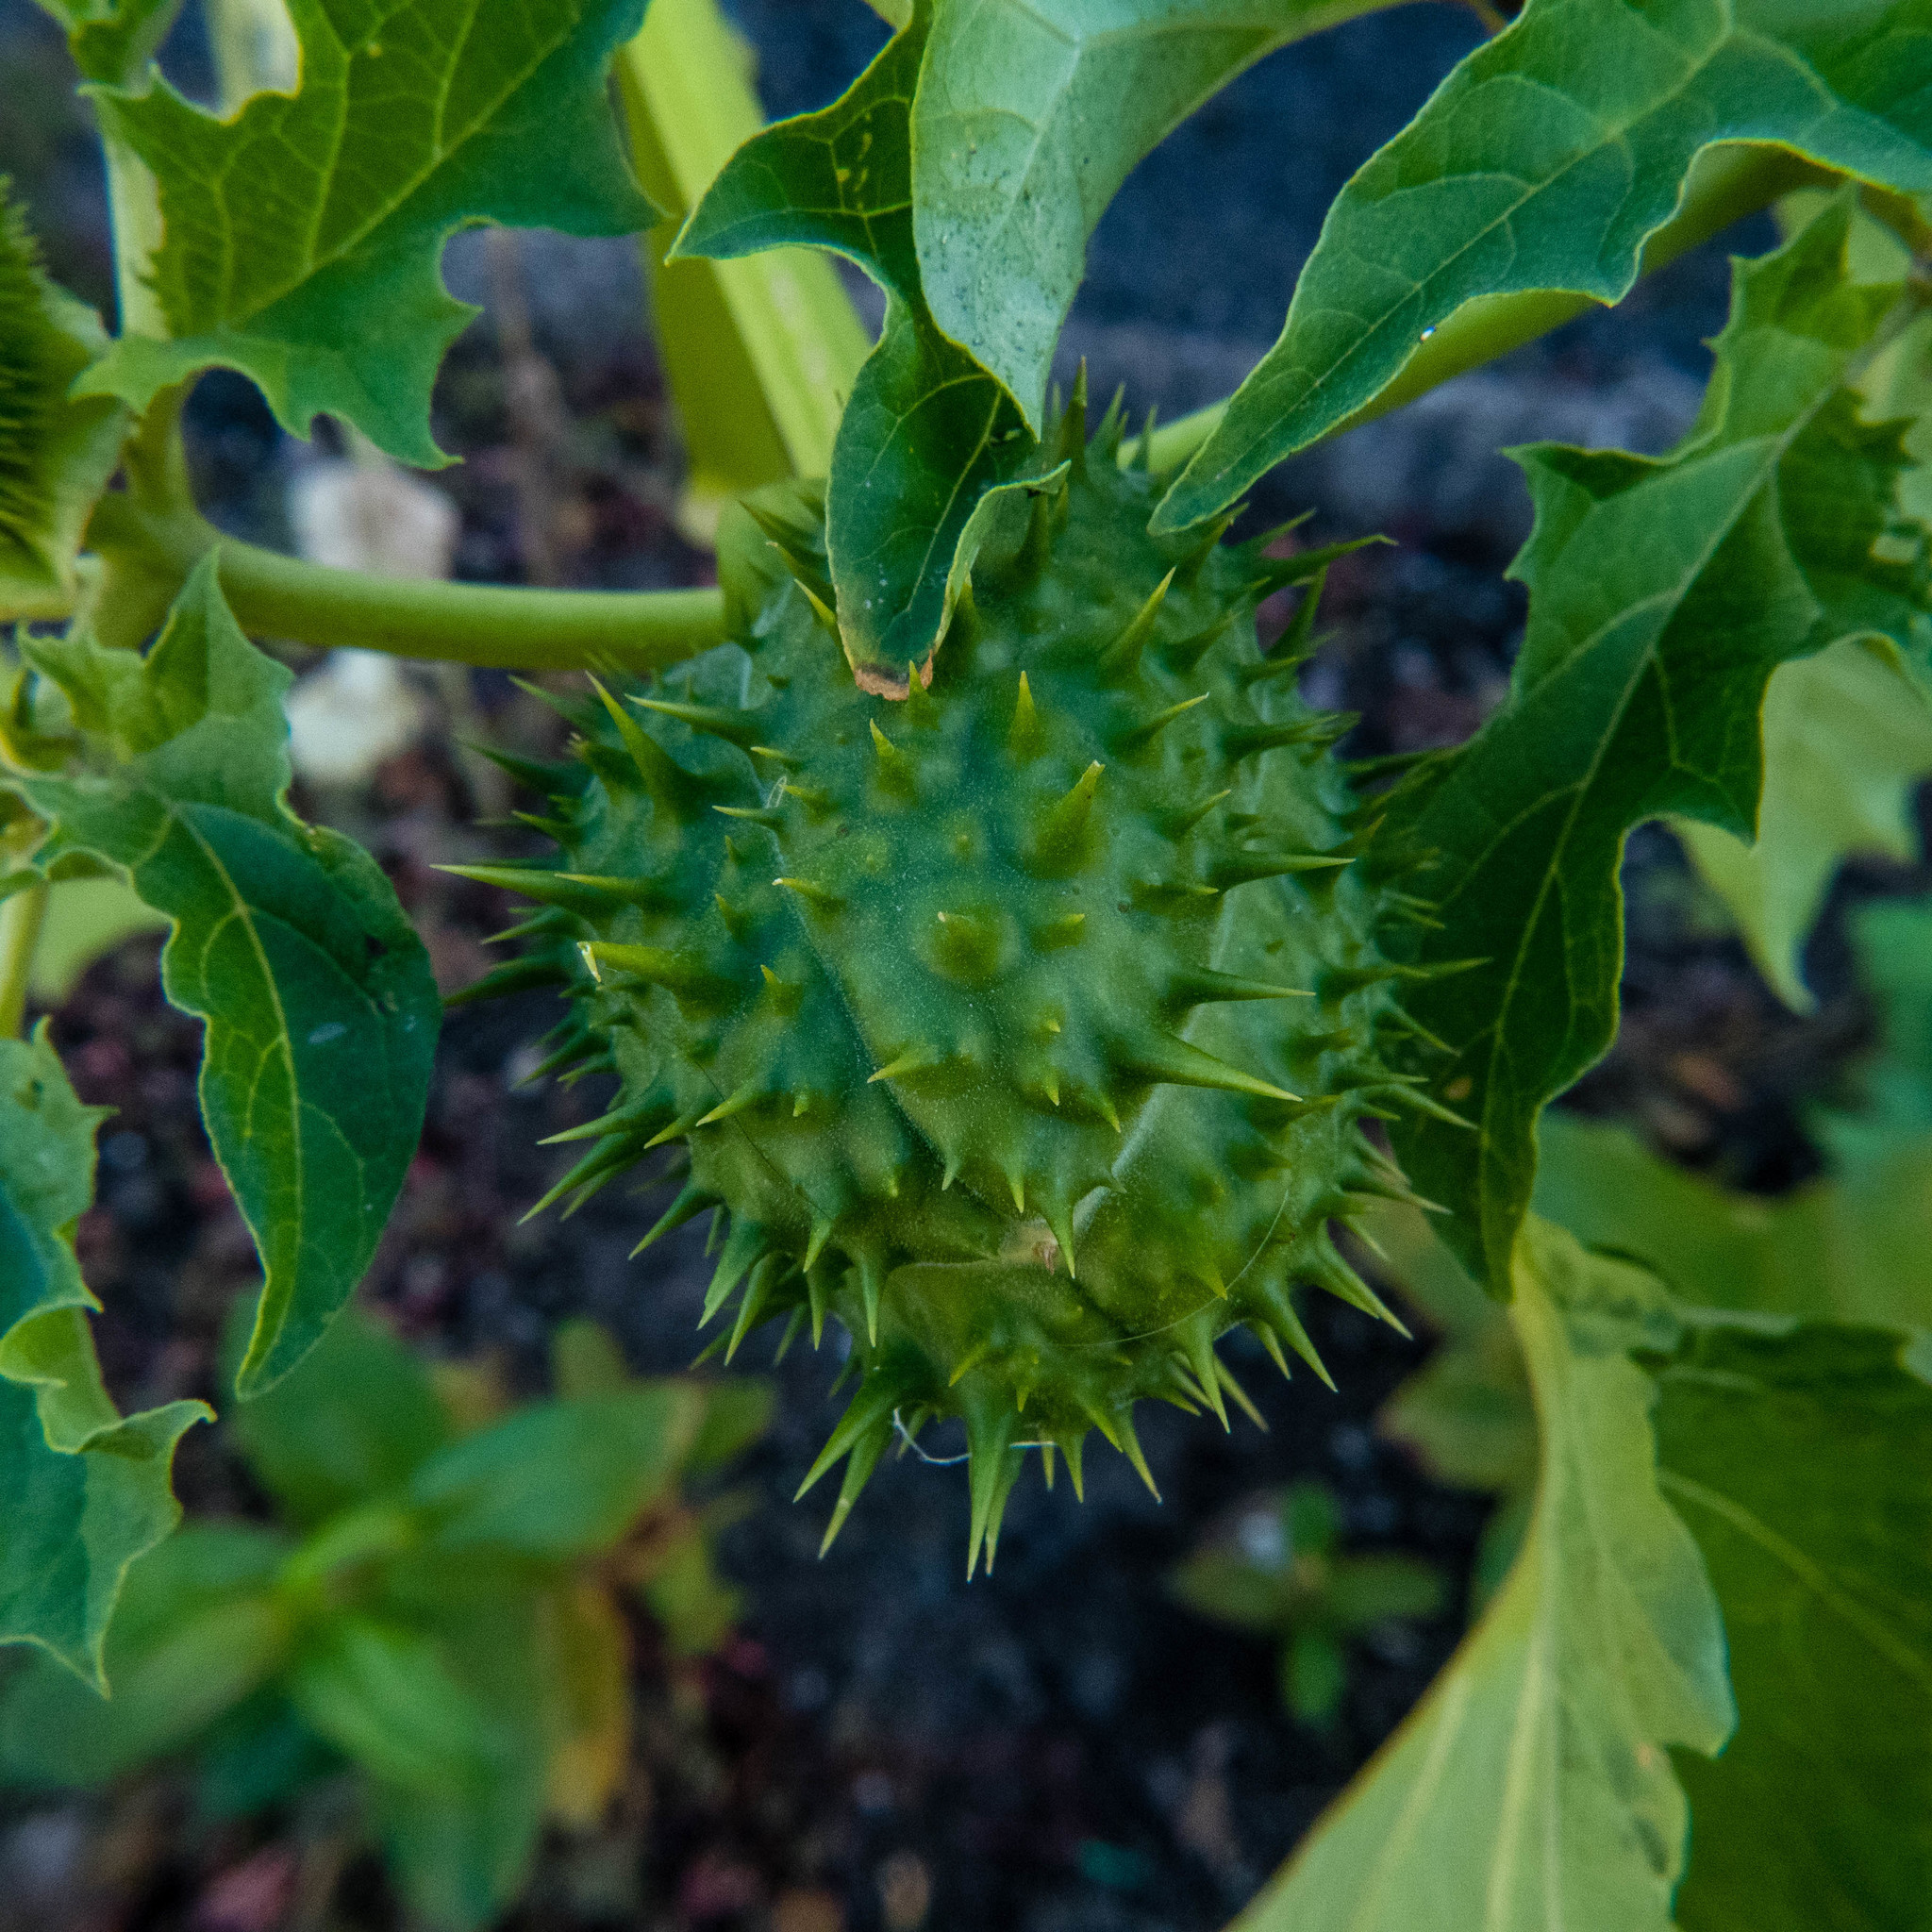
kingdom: Plantae
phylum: Tracheophyta
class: Magnoliopsida
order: Solanales
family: Solanaceae
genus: Datura
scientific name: Datura stramonium
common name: Thorn-apple
